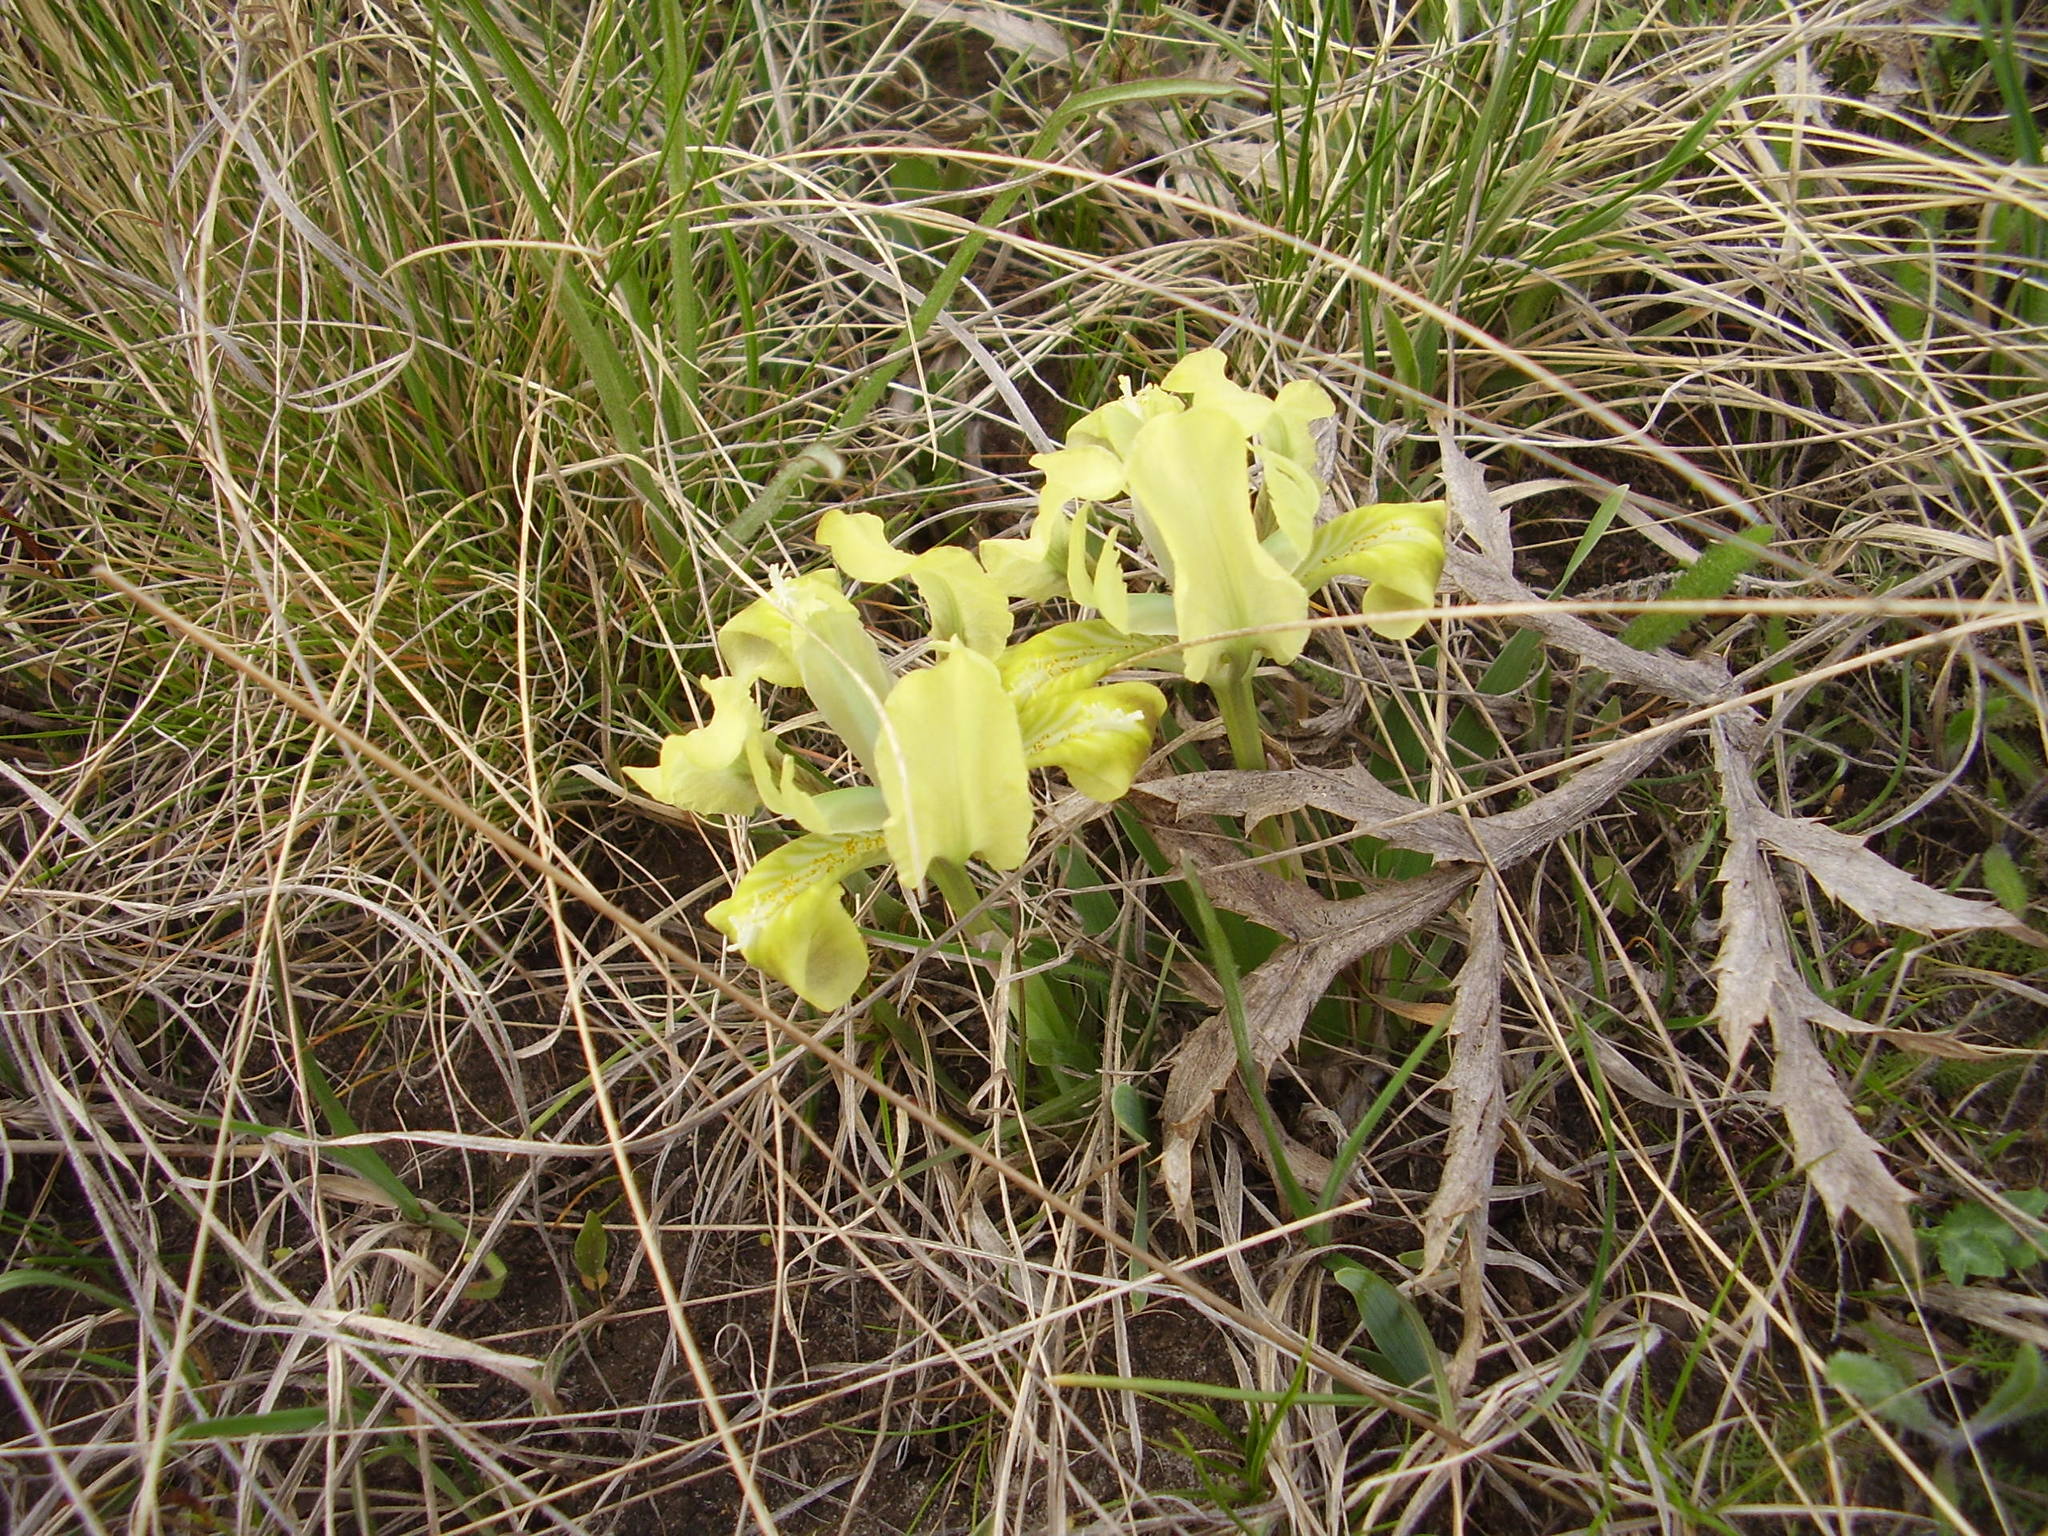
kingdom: Plantae
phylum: Tracheophyta
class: Liliopsida
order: Asparagales
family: Iridaceae
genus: Iris
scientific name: Iris pumila
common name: Dwarf iris
